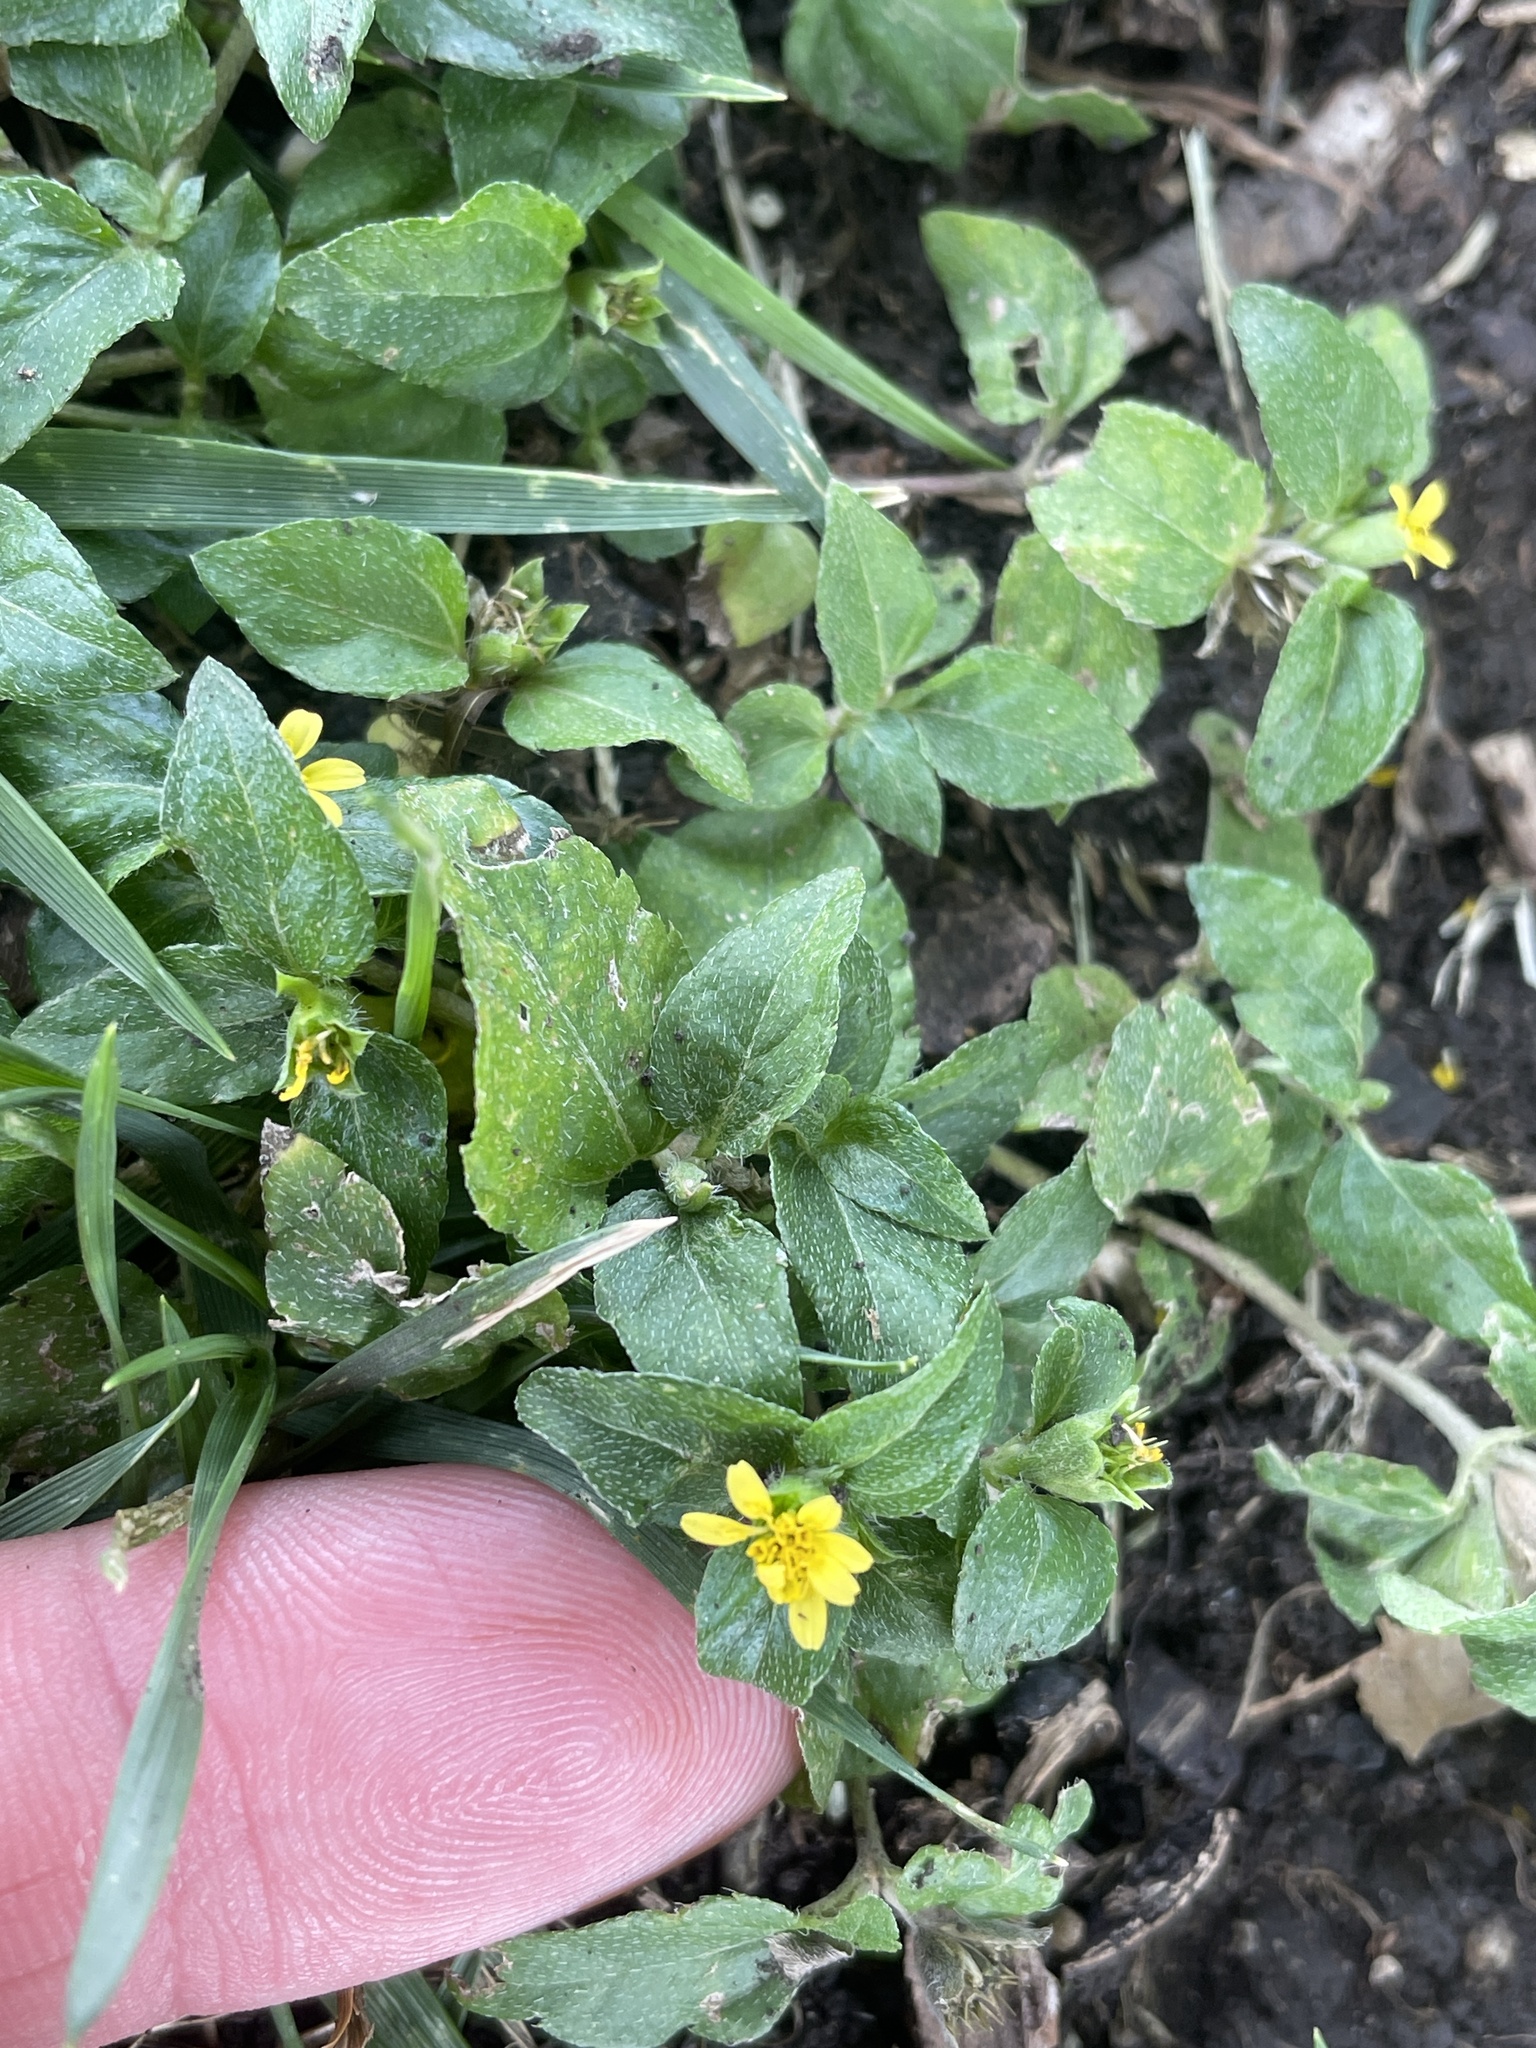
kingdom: Plantae
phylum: Tracheophyta
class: Magnoliopsida
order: Asterales
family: Asteraceae
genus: Calyptocarpus
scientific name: Calyptocarpus vialis
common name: Straggler daisy
